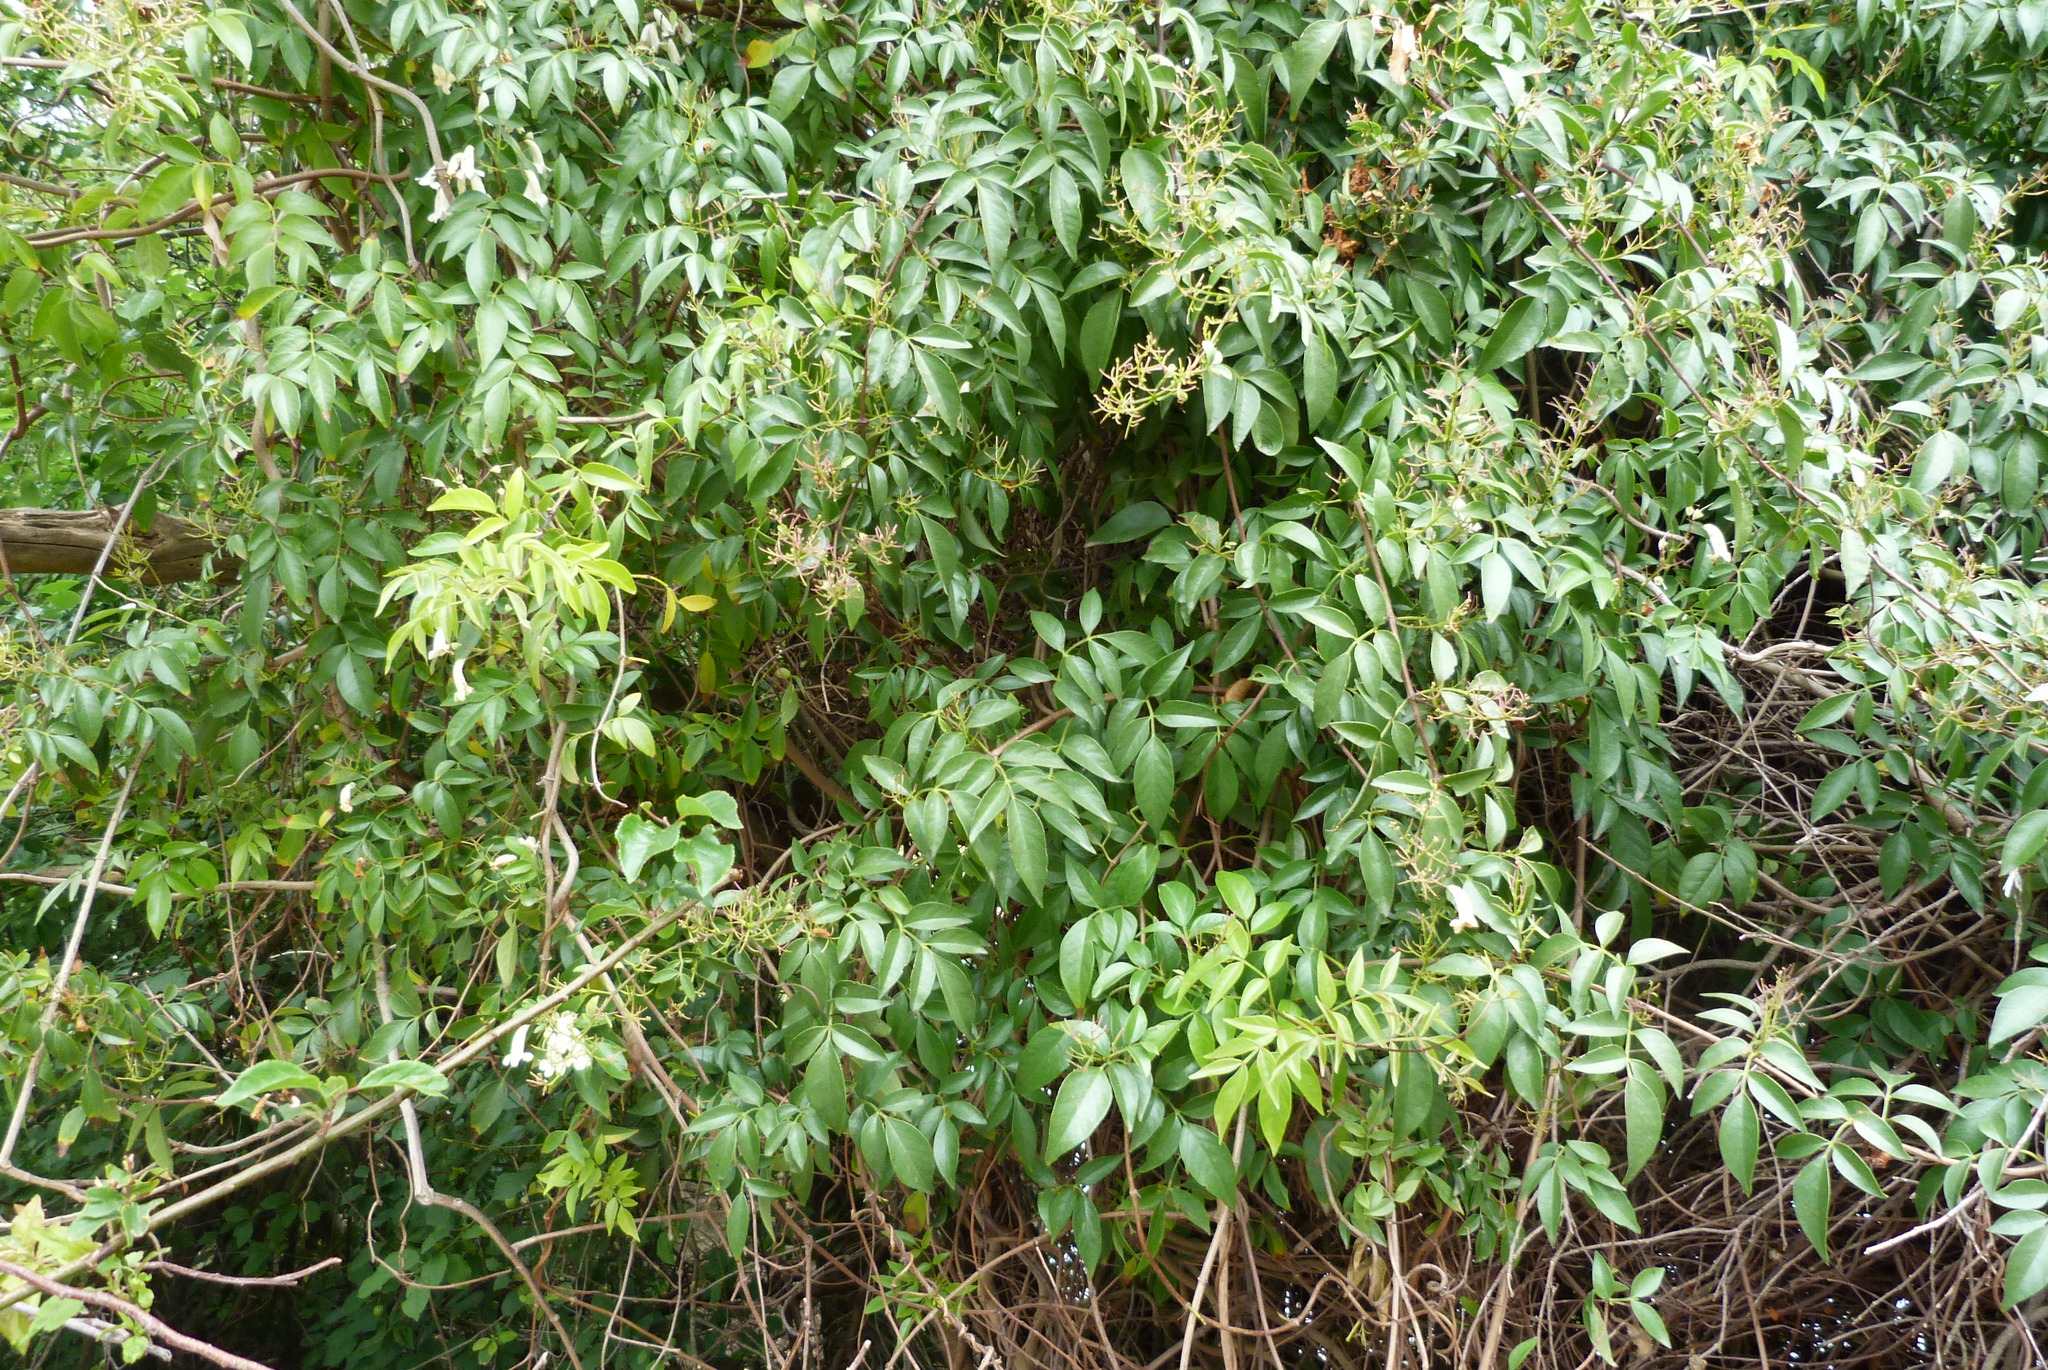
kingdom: Plantae
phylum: Tracheophyta
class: Magnoliopsida
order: Lamiales
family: Bignoniaceae
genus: Pandorea
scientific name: Pandorea pandorana
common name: Wonga-wonga-vine
